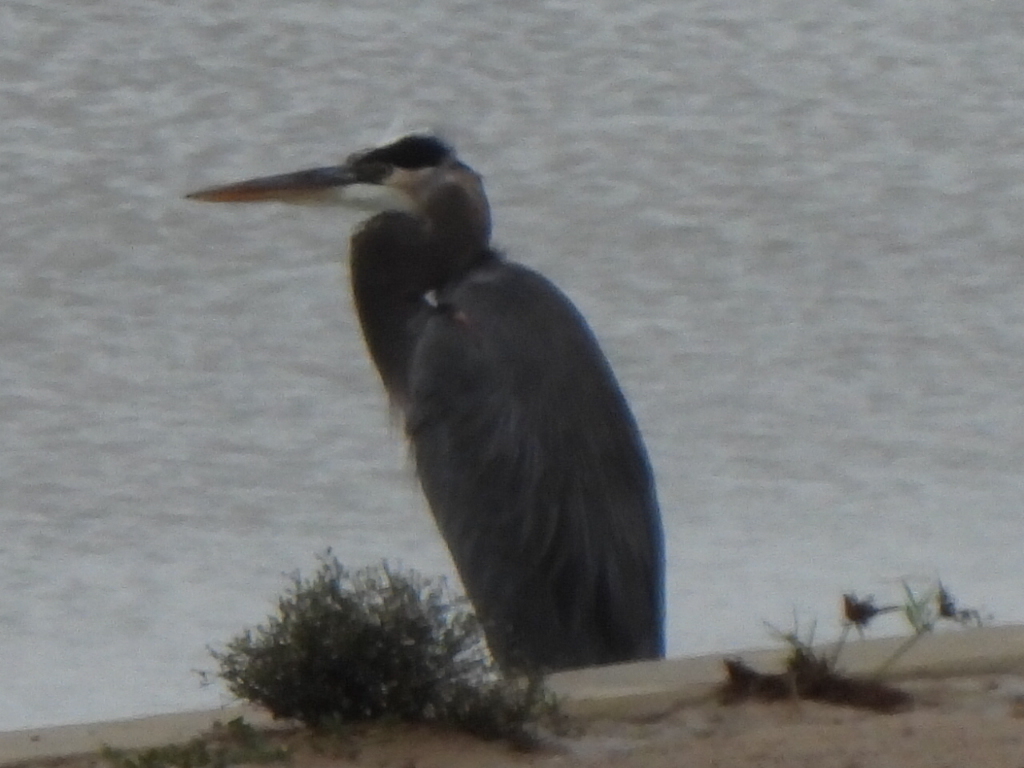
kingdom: Animalia
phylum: Chordata
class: Aves
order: Pelecaniformes
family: Ardeidae
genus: Ardea
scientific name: Ardea herodias
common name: Great blue heron
